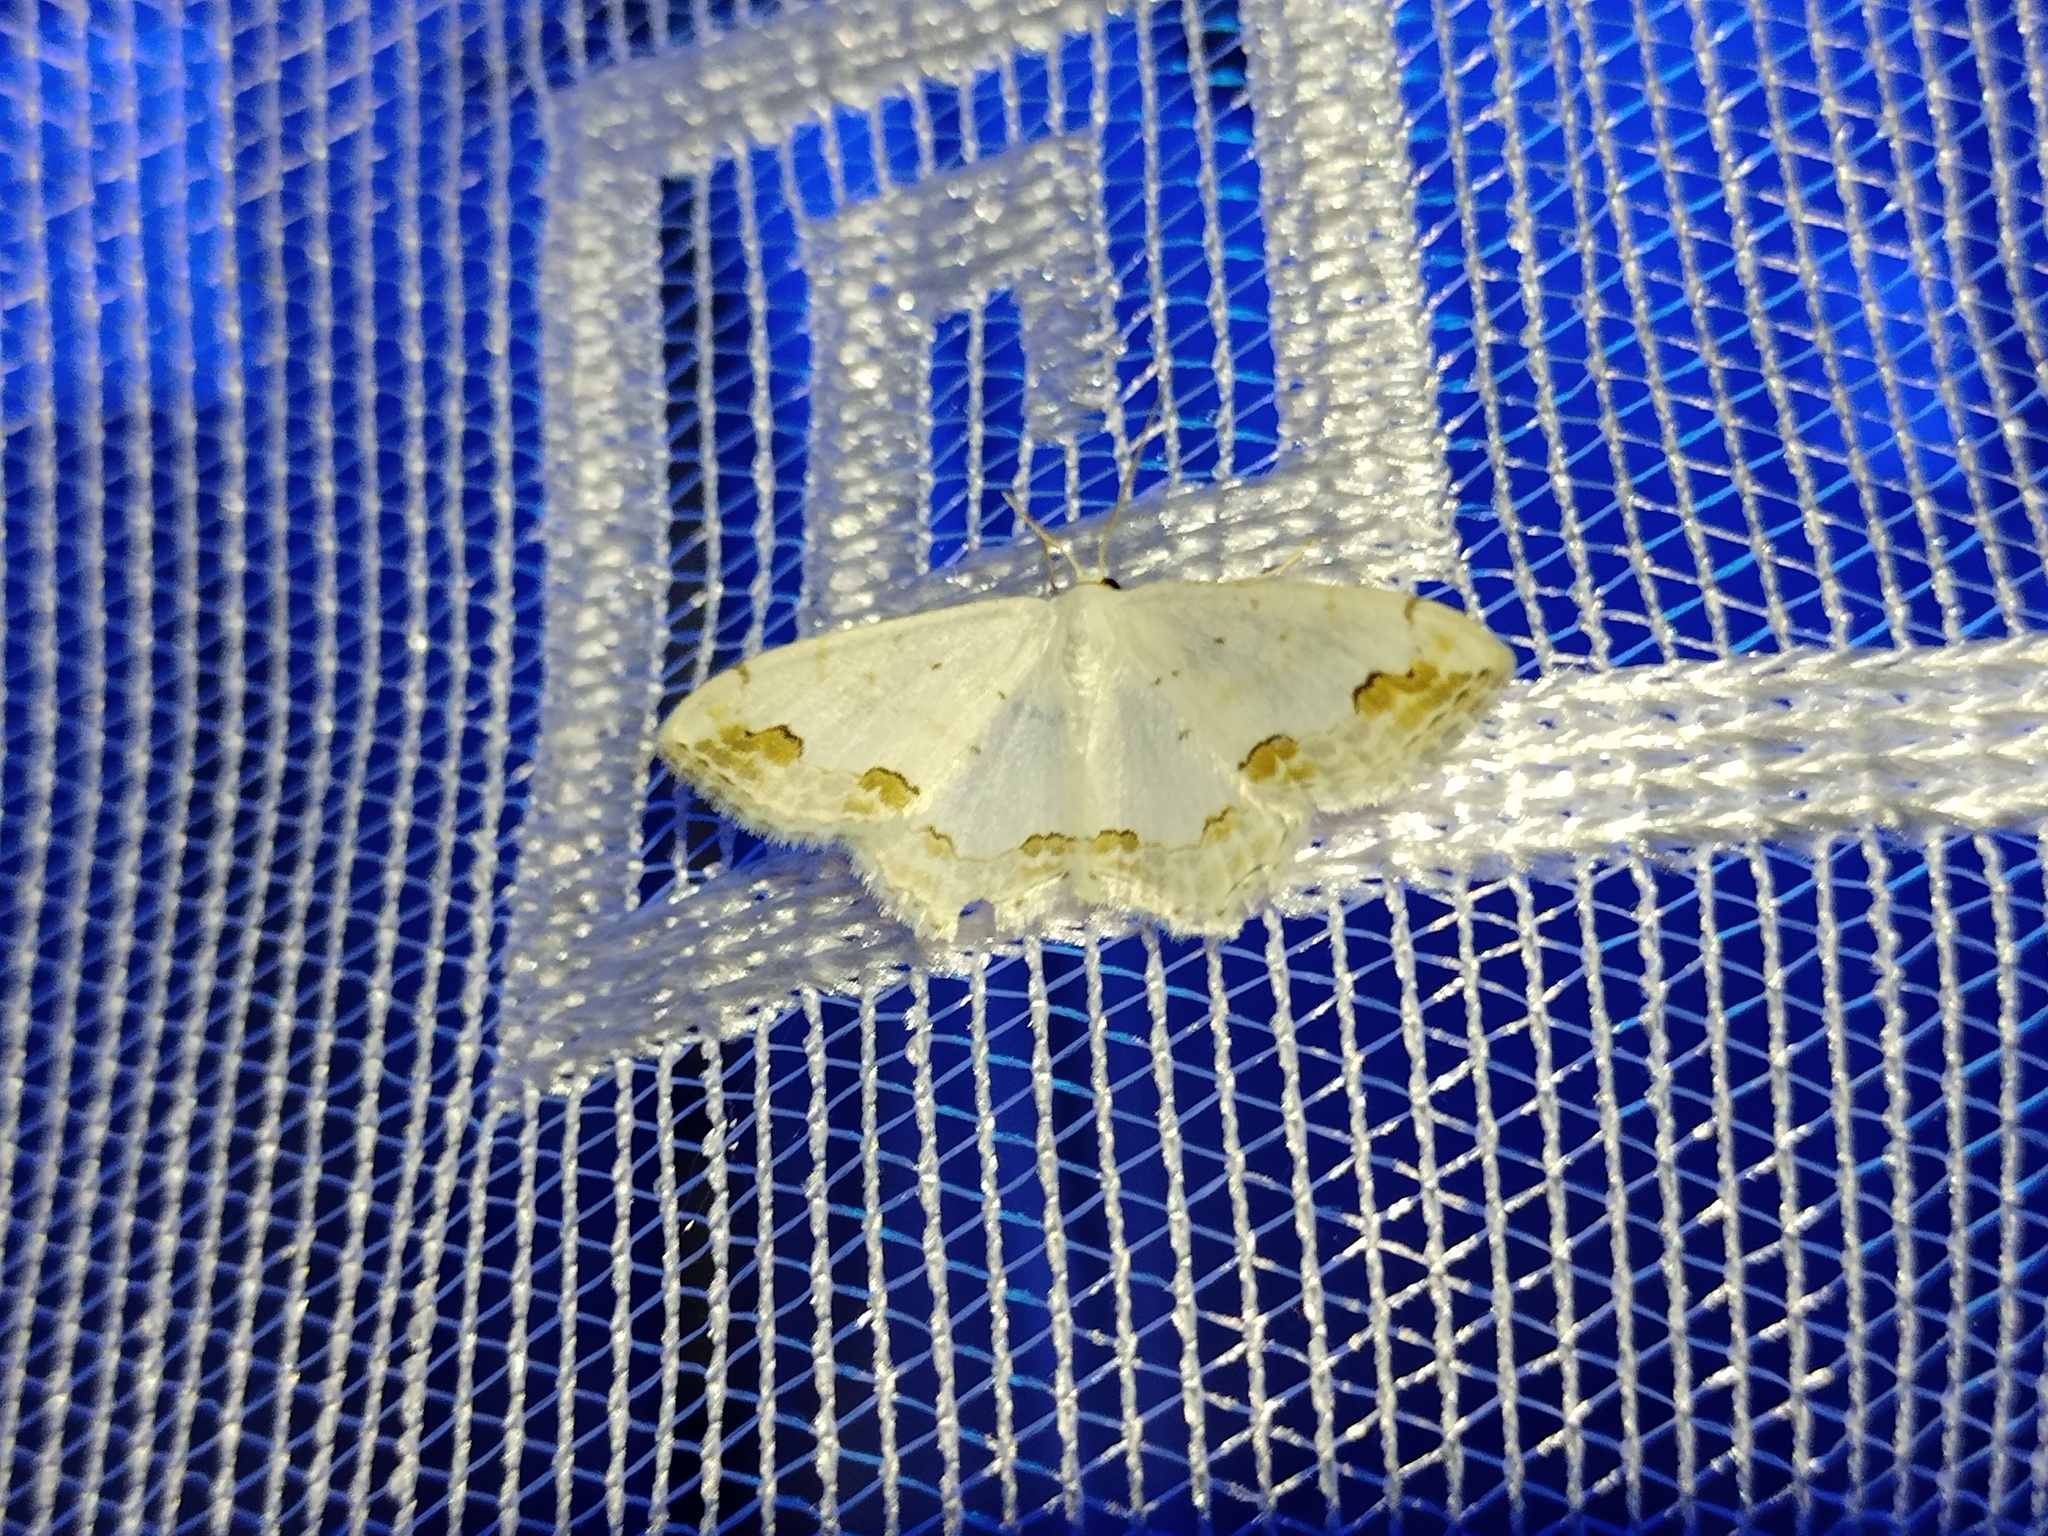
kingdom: Animalia
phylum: Arthropoda
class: Insecta
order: Lepidoptera
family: Geometridae
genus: Scopula
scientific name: Scopula ornata
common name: Lace border
